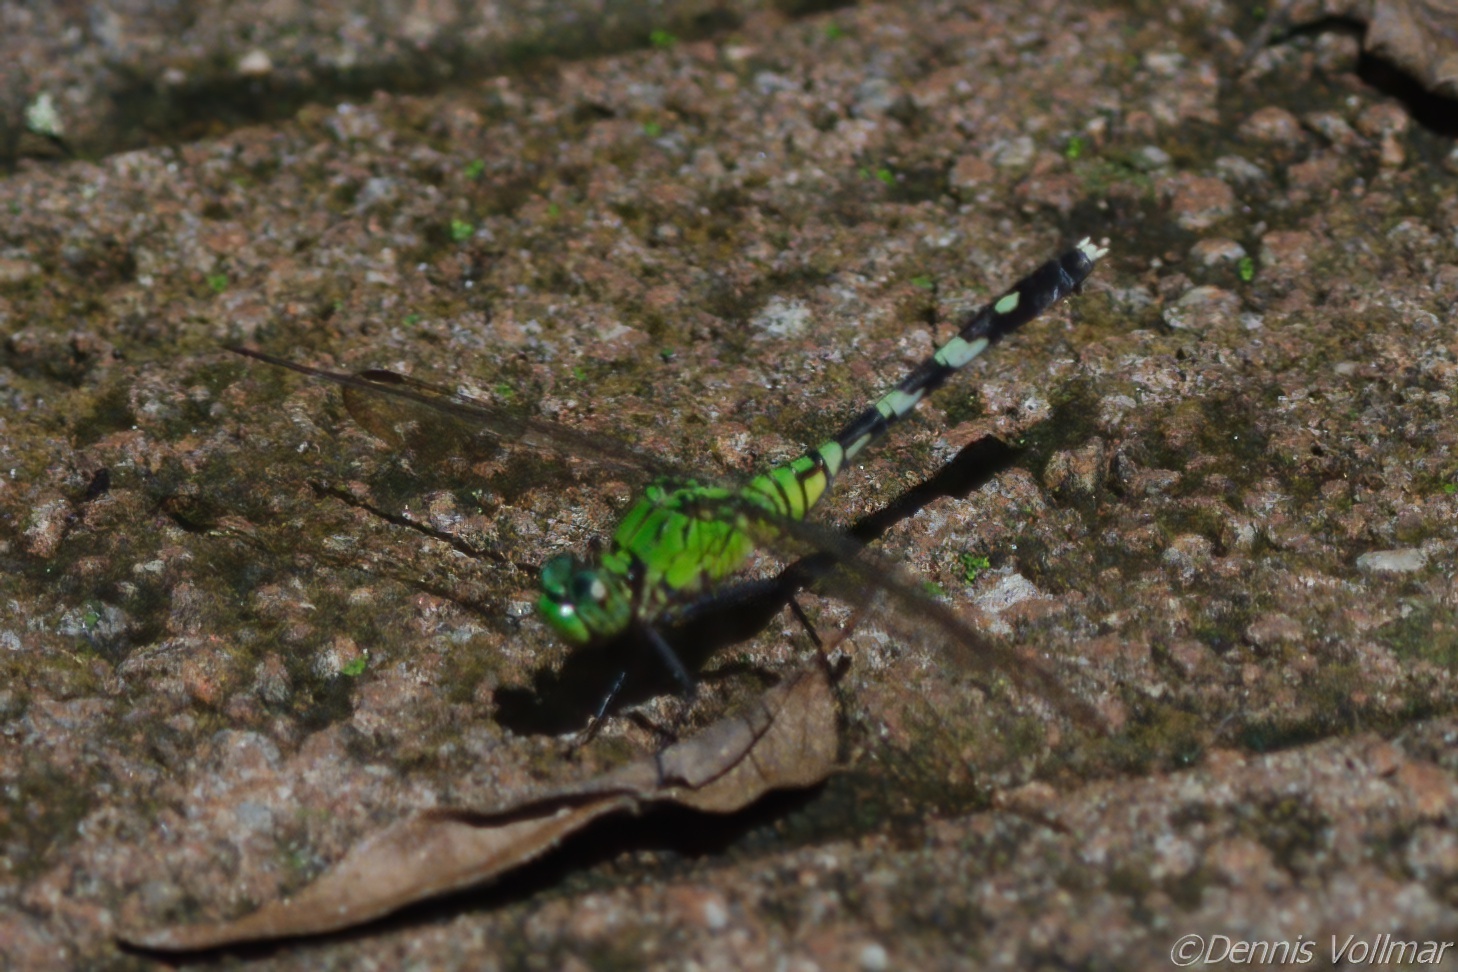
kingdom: Animalia
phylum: Arthropoda
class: Insecta
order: Odonata
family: Libellulidae
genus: Erythemis
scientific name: Erythemis simplicicollis
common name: Eastern pondhawk
